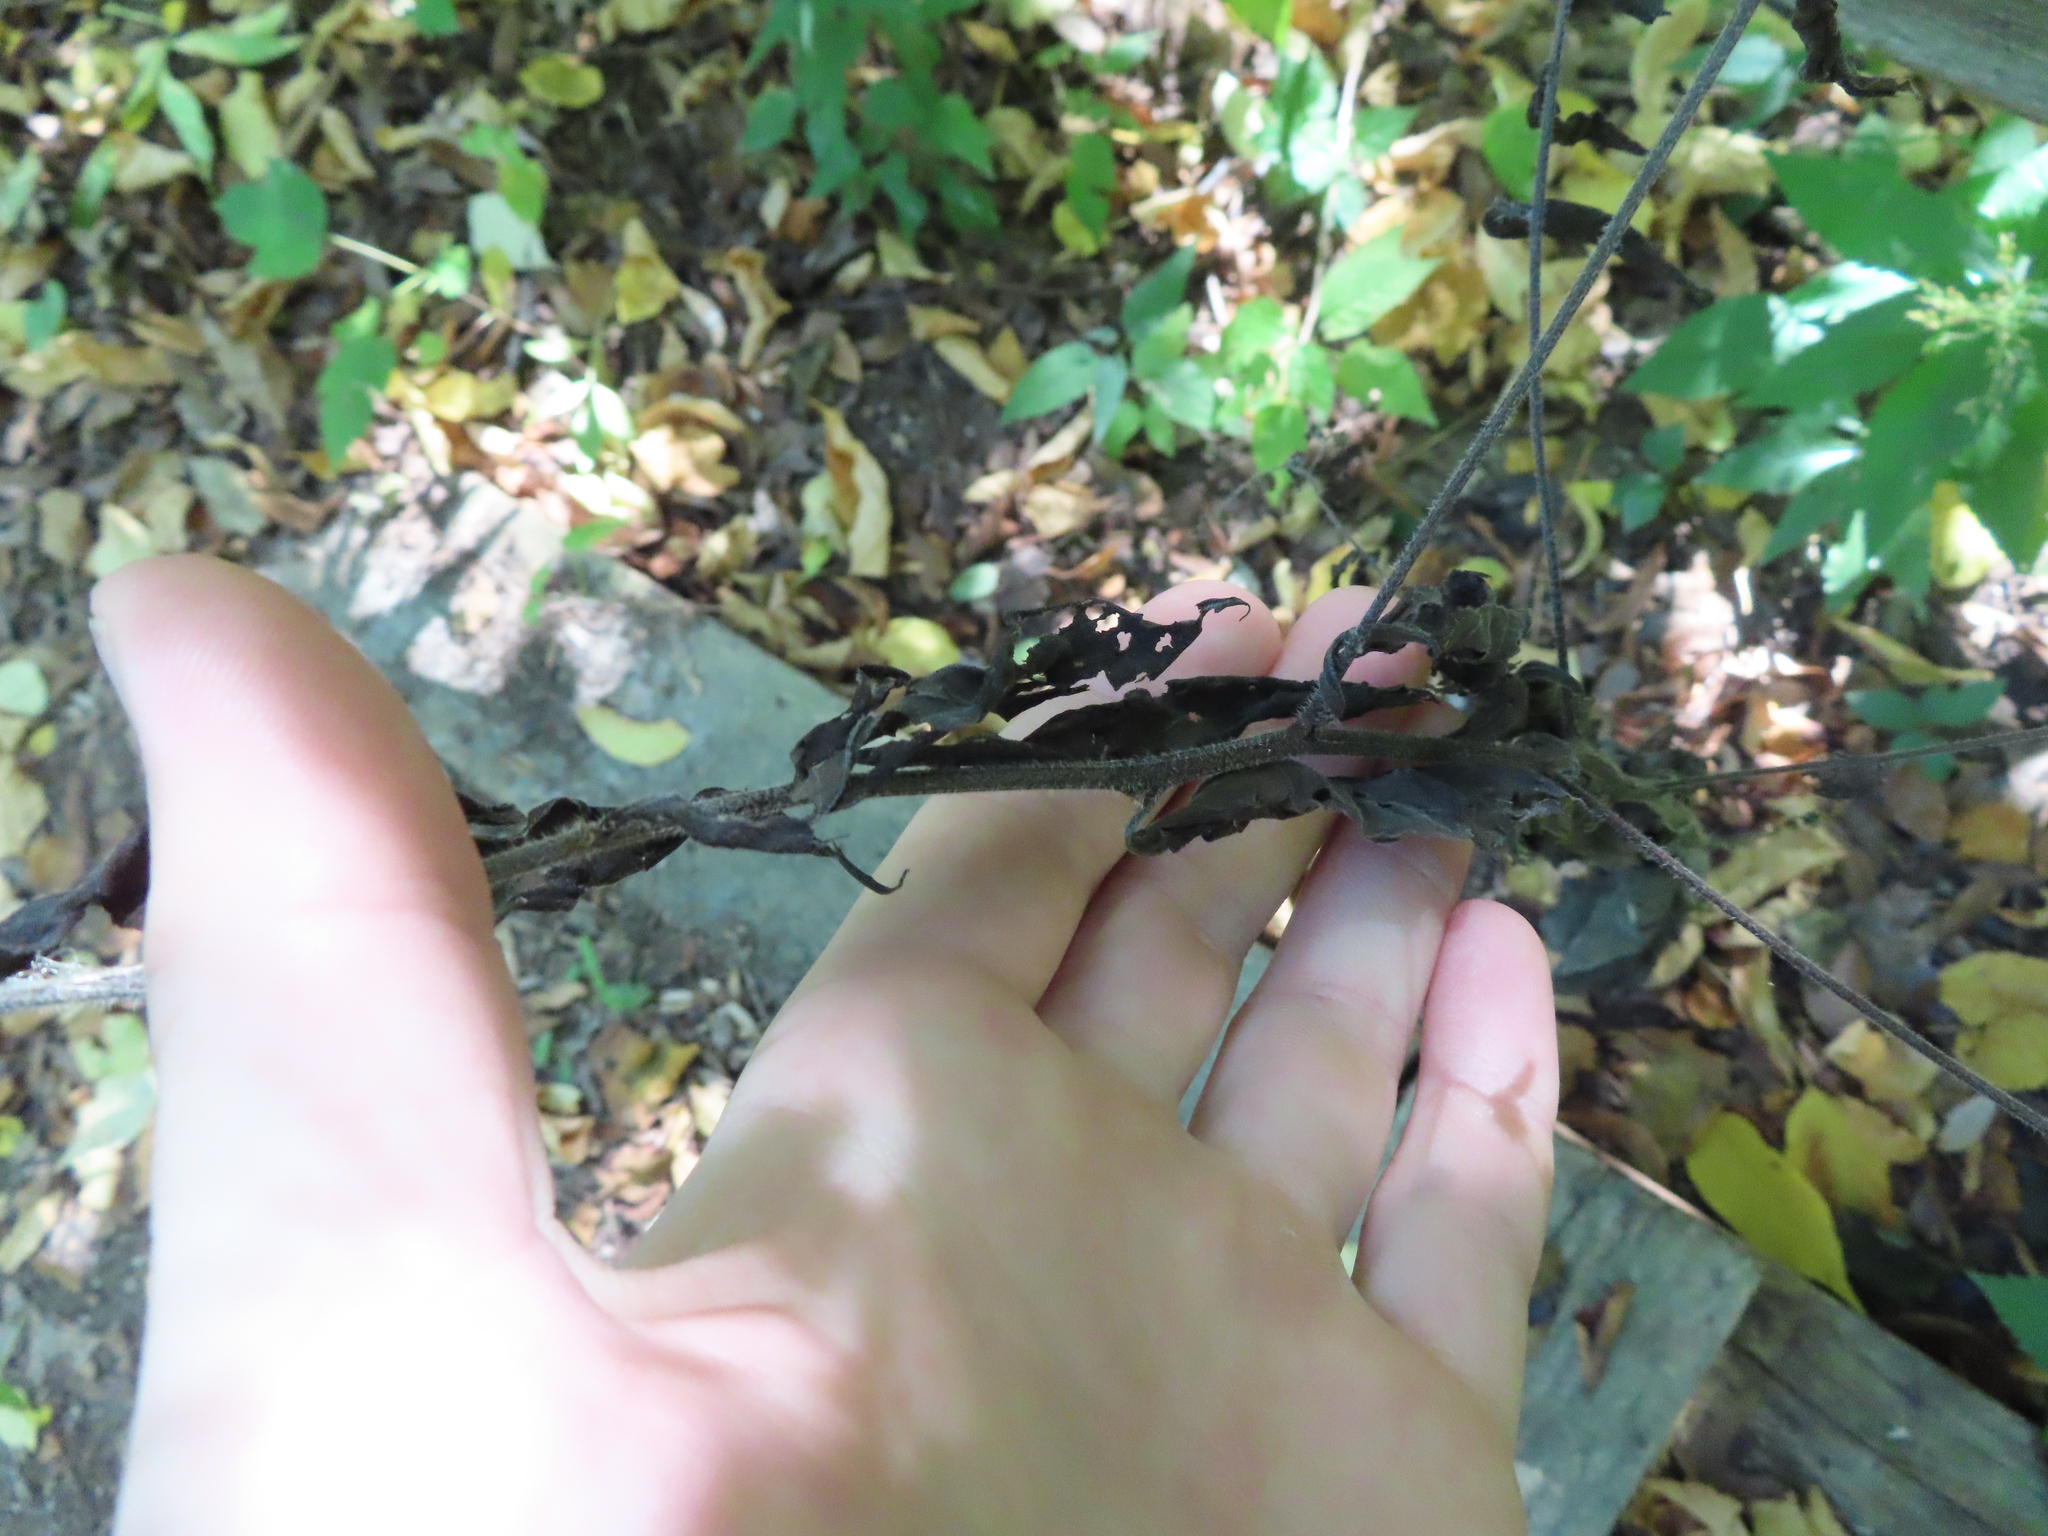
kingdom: Plantae
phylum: Tracheophyta
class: Magnoliopsida
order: Boraginales
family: Boraginaceae
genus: Hackelia
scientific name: Hackelia virginiana
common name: Beggar's-lice
